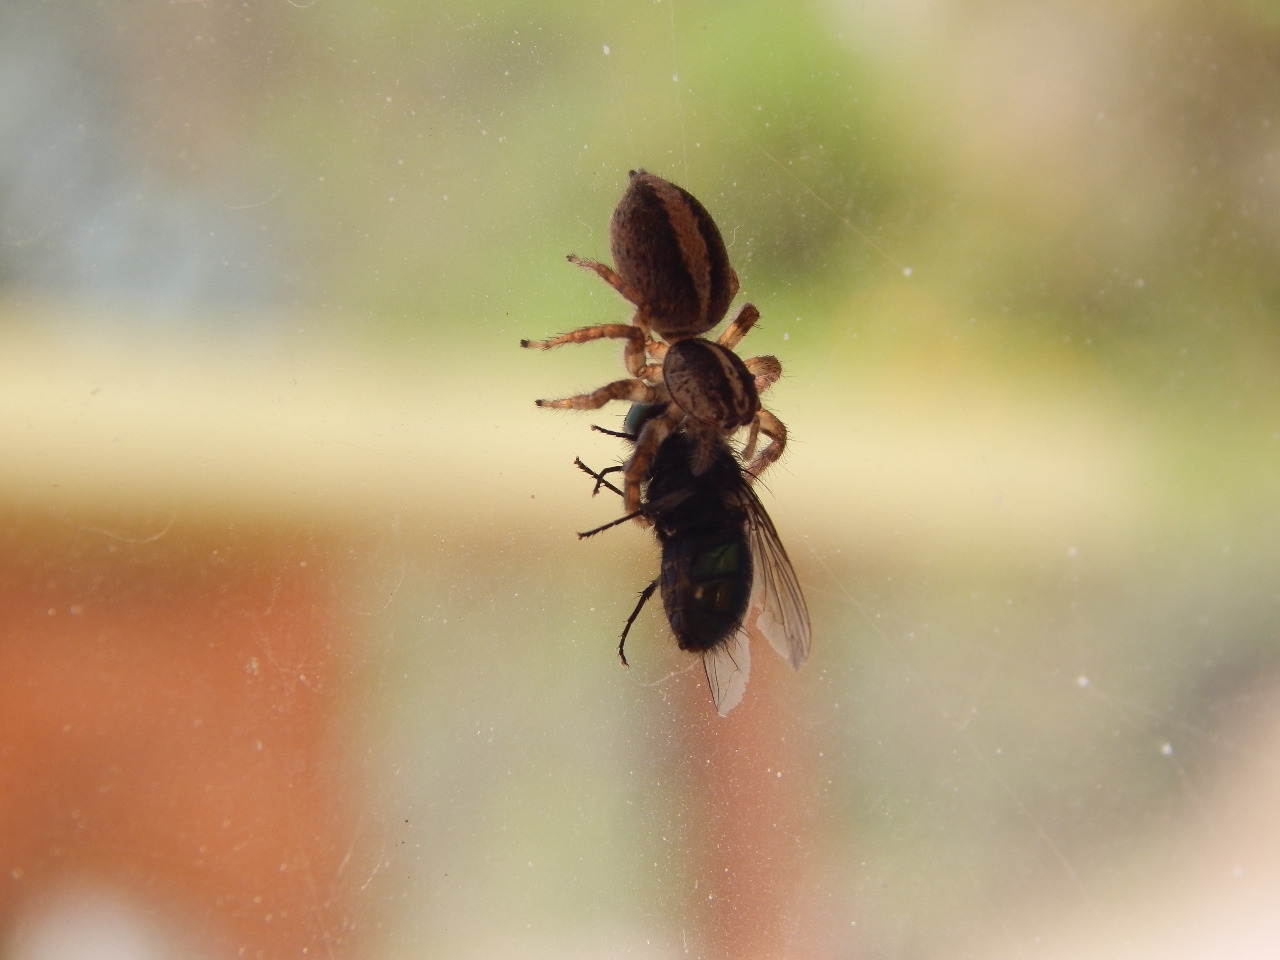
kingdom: Animalia
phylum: Arthropoda
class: Arachnida
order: Araneae
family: Salticidae
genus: Frigga
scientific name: Frigga crocuta
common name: Jumping spiders
